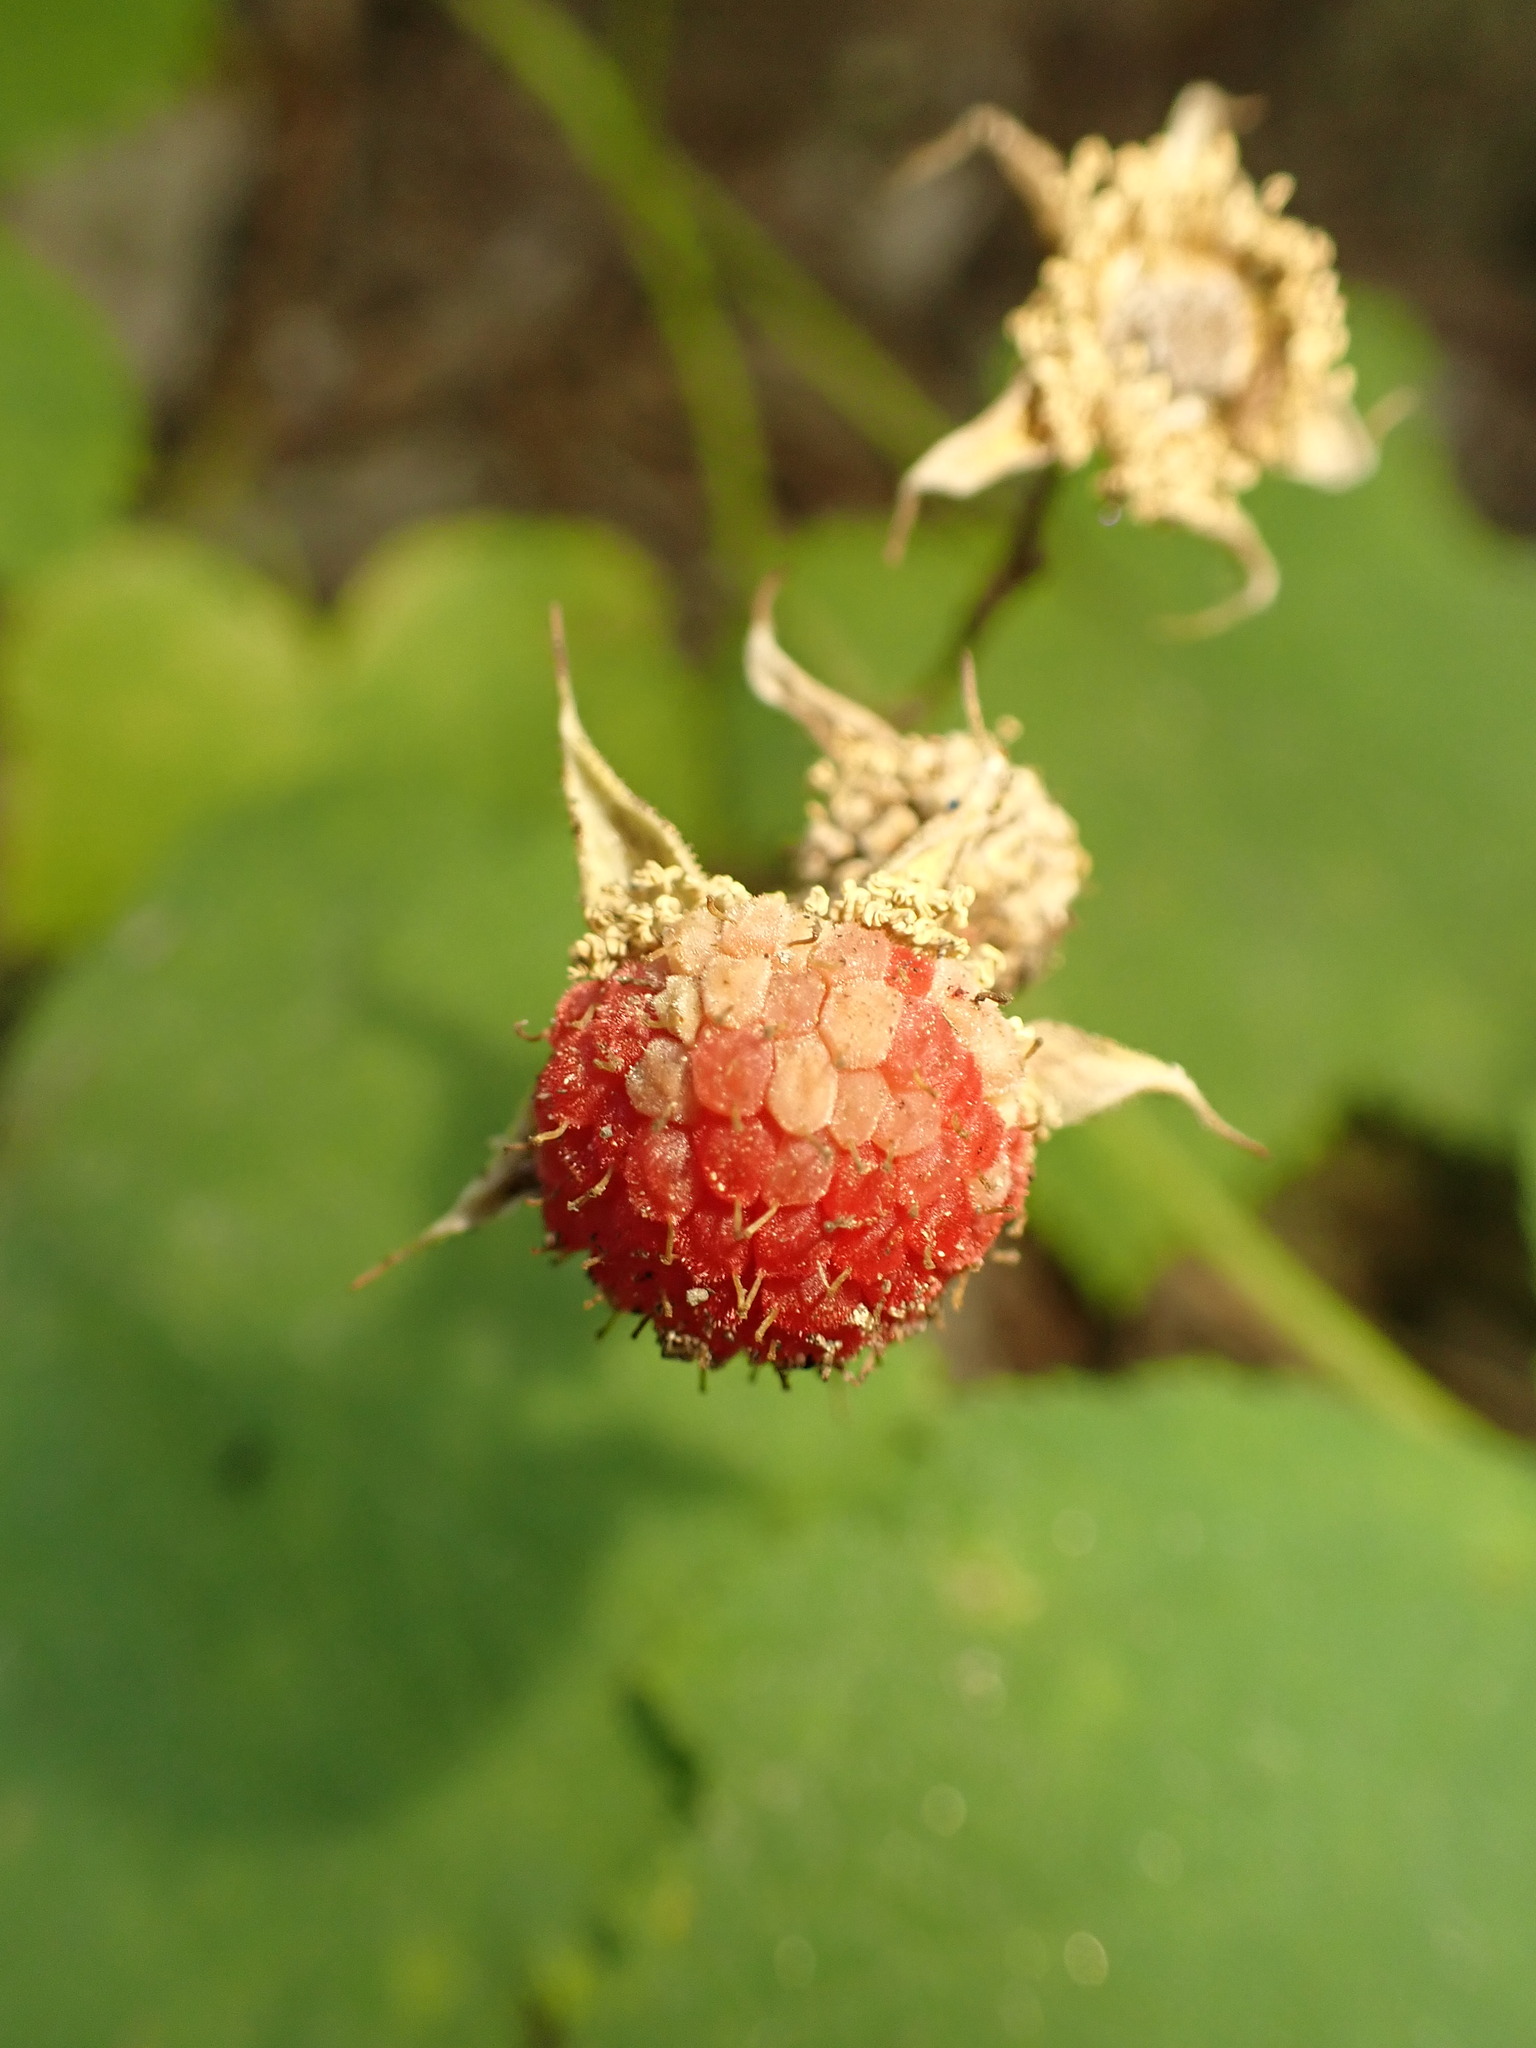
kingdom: Plantae
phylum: Tracheophyta
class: Magnoliopsida
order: Rosales
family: Rosaceae
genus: Rubus
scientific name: Rubus parviflorus
